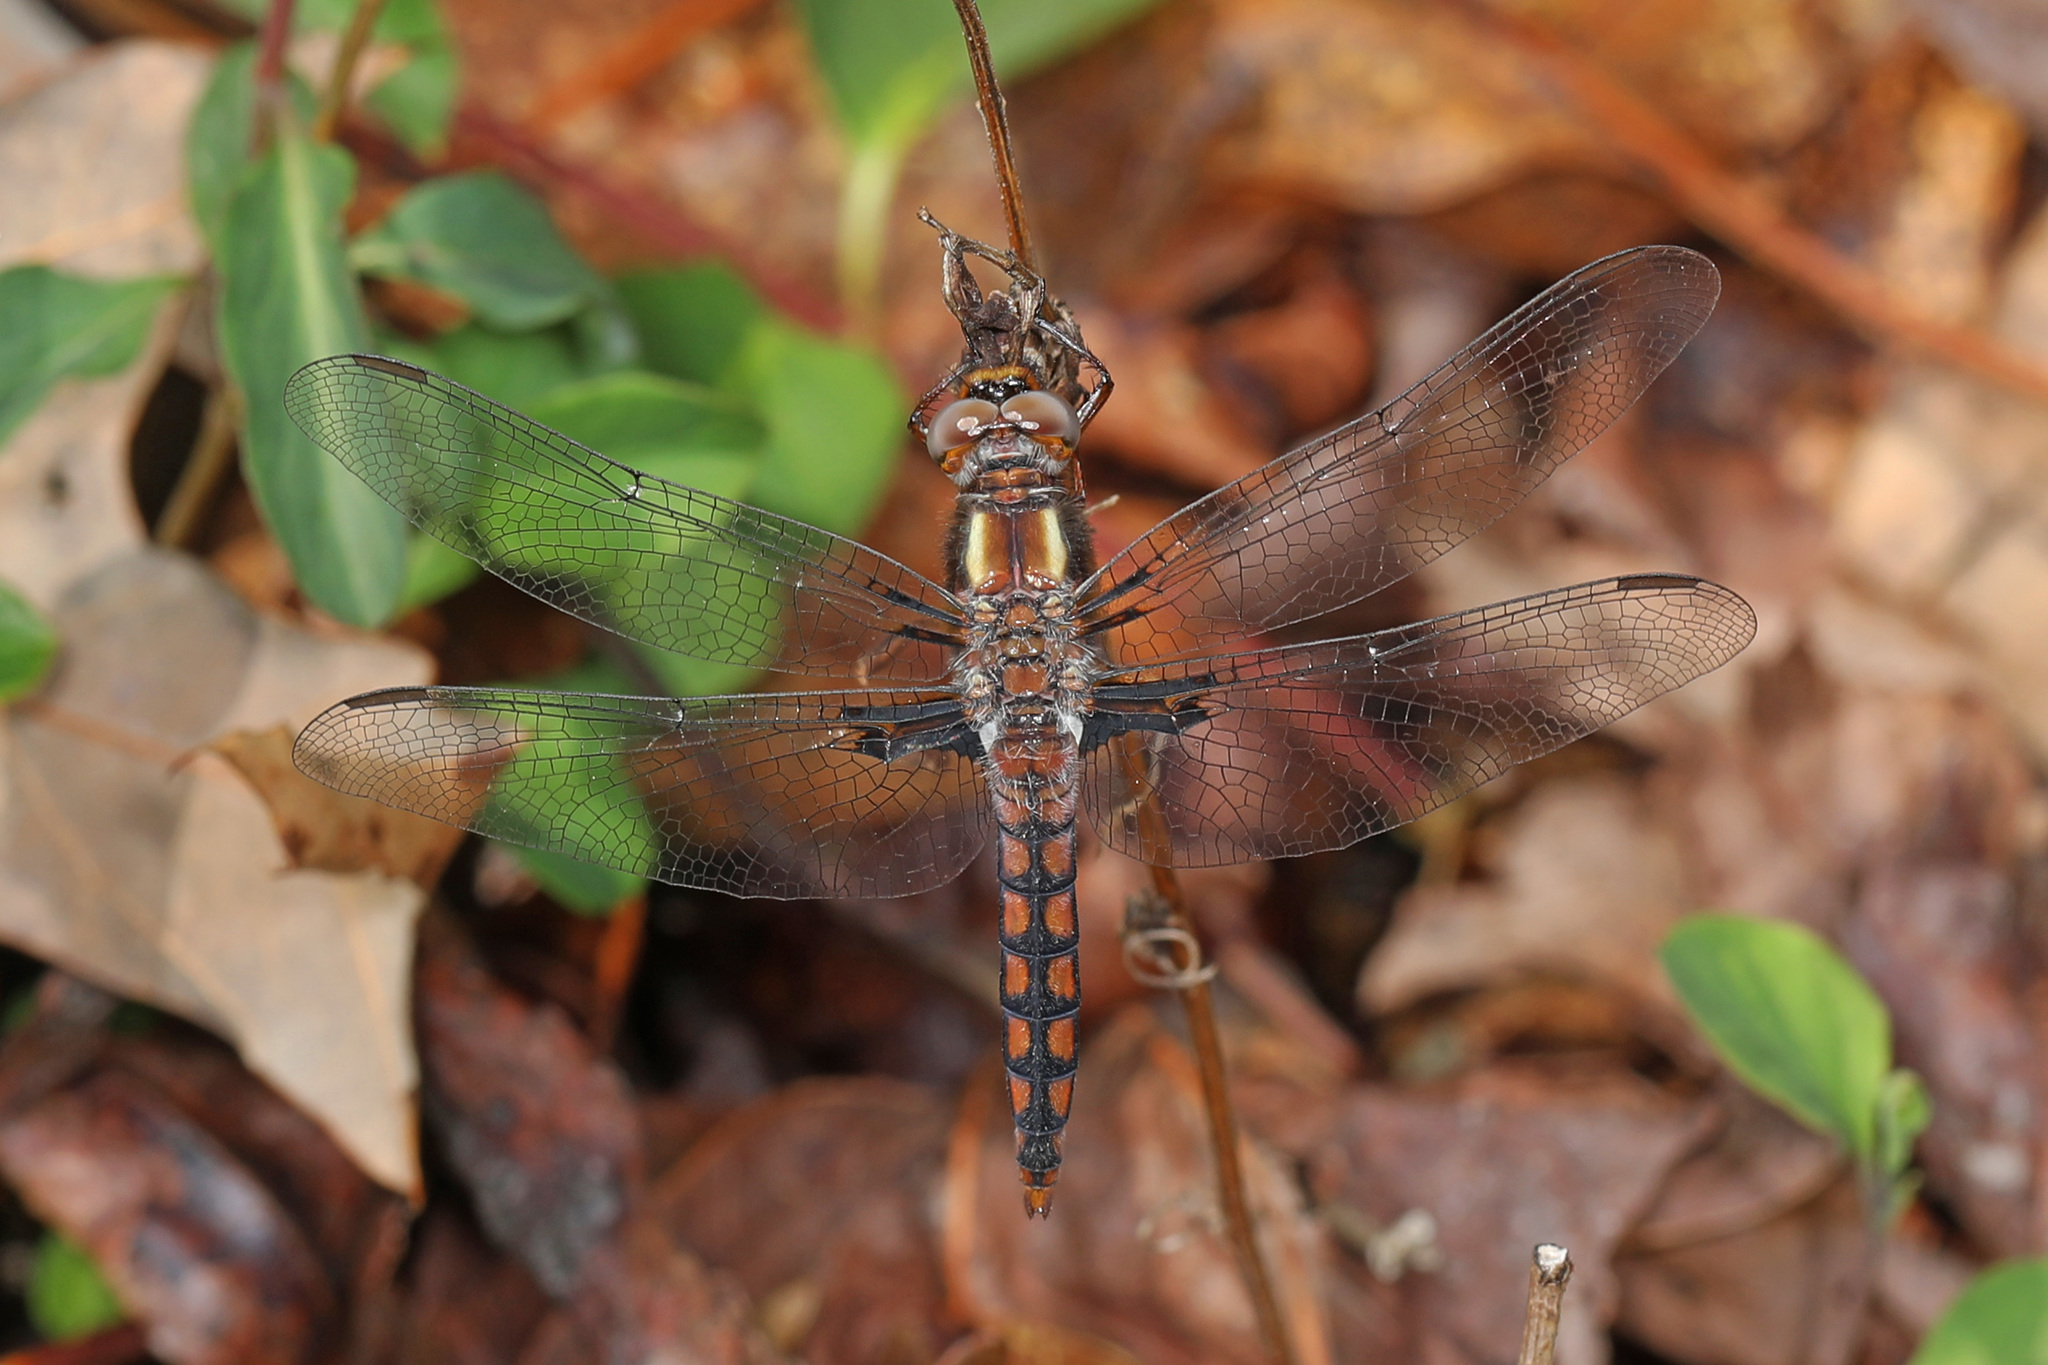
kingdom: Animalia
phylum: Arthropoda
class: Insecta
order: Odonata
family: Libellulidae
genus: Ladona
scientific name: Ladona deplanata
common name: Blue corporal
